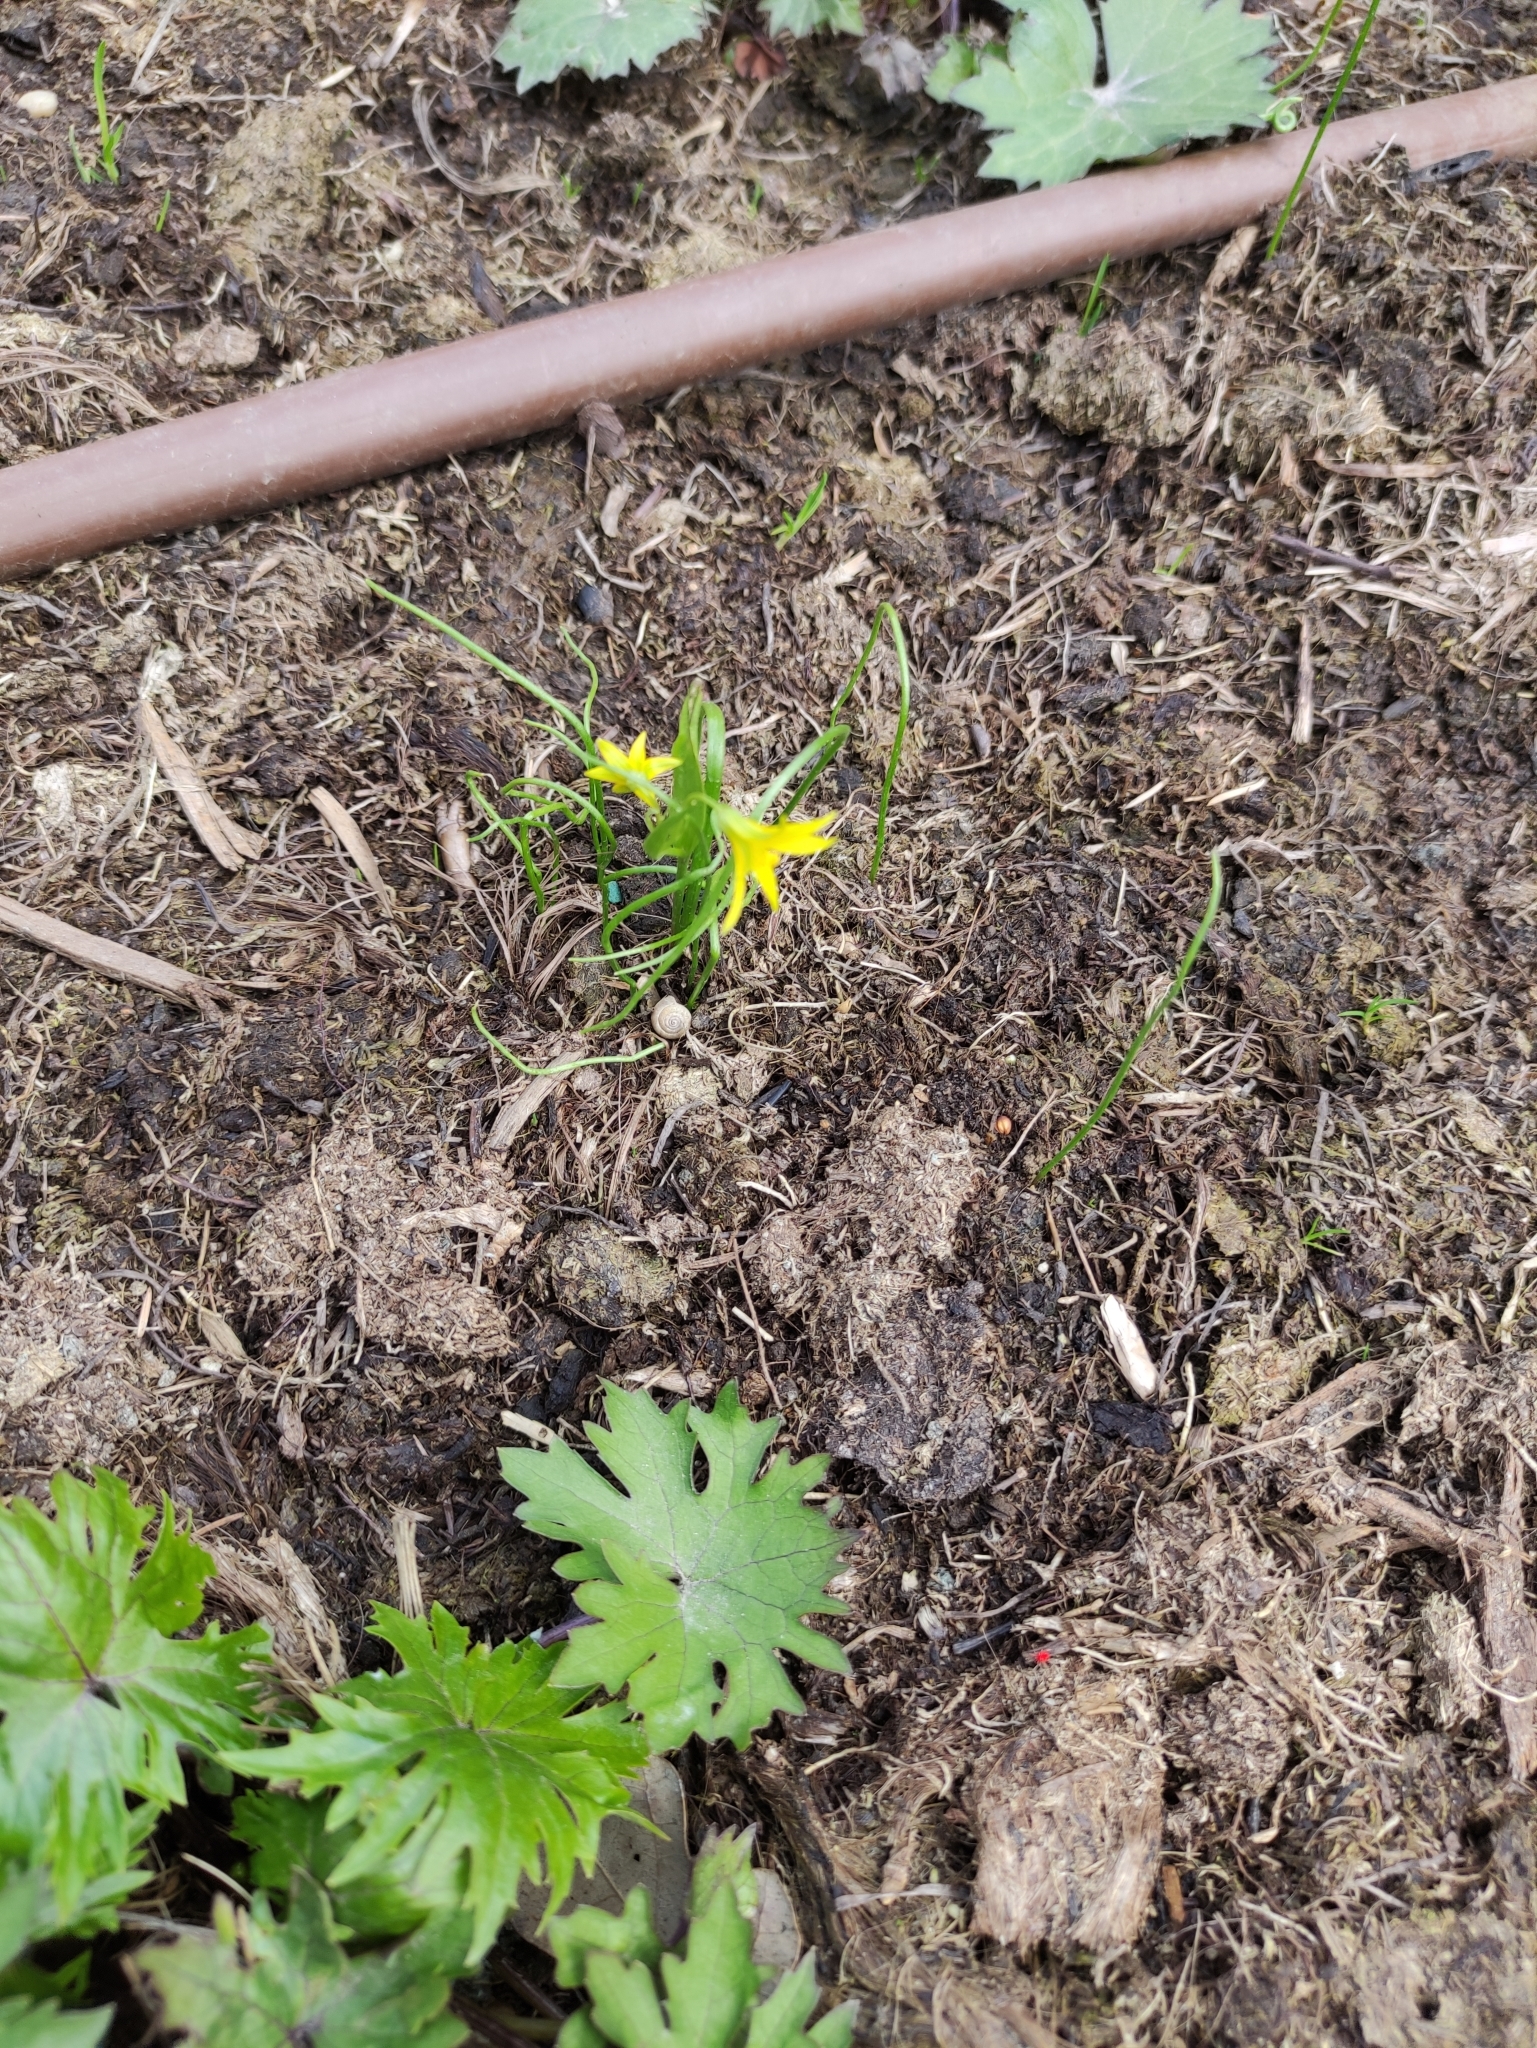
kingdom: Plantae
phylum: Tracheophyta
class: Liliopsida
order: Liliales
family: Liliaceae
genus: Gagea
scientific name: Gagea minima
